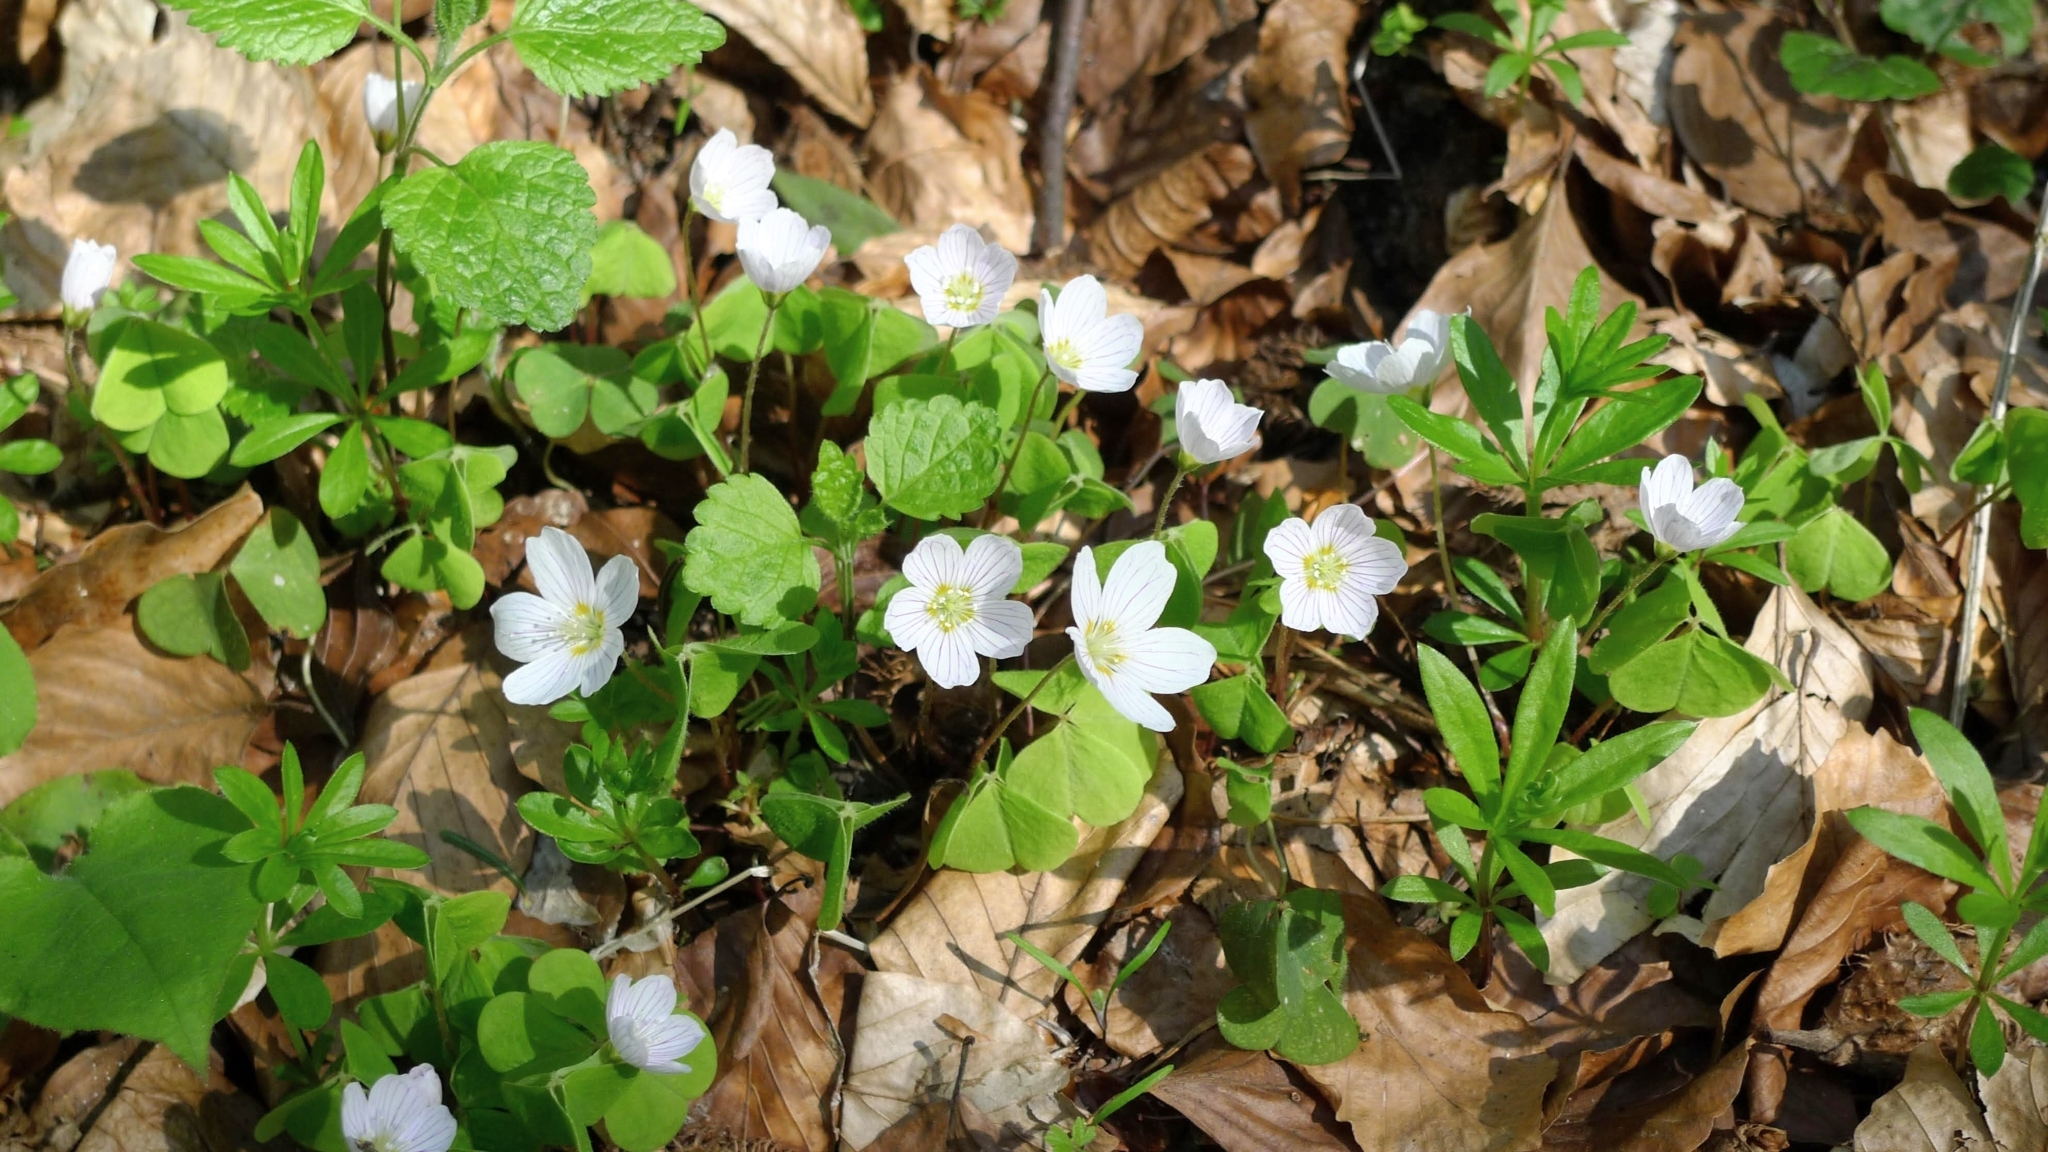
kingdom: Plantae
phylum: Tracheophyta
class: Magnoliopsida
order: Oxalidales
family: Oxalidaceae
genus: Oxalis
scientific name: Oxalis acetosella
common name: Wood-sorrel
